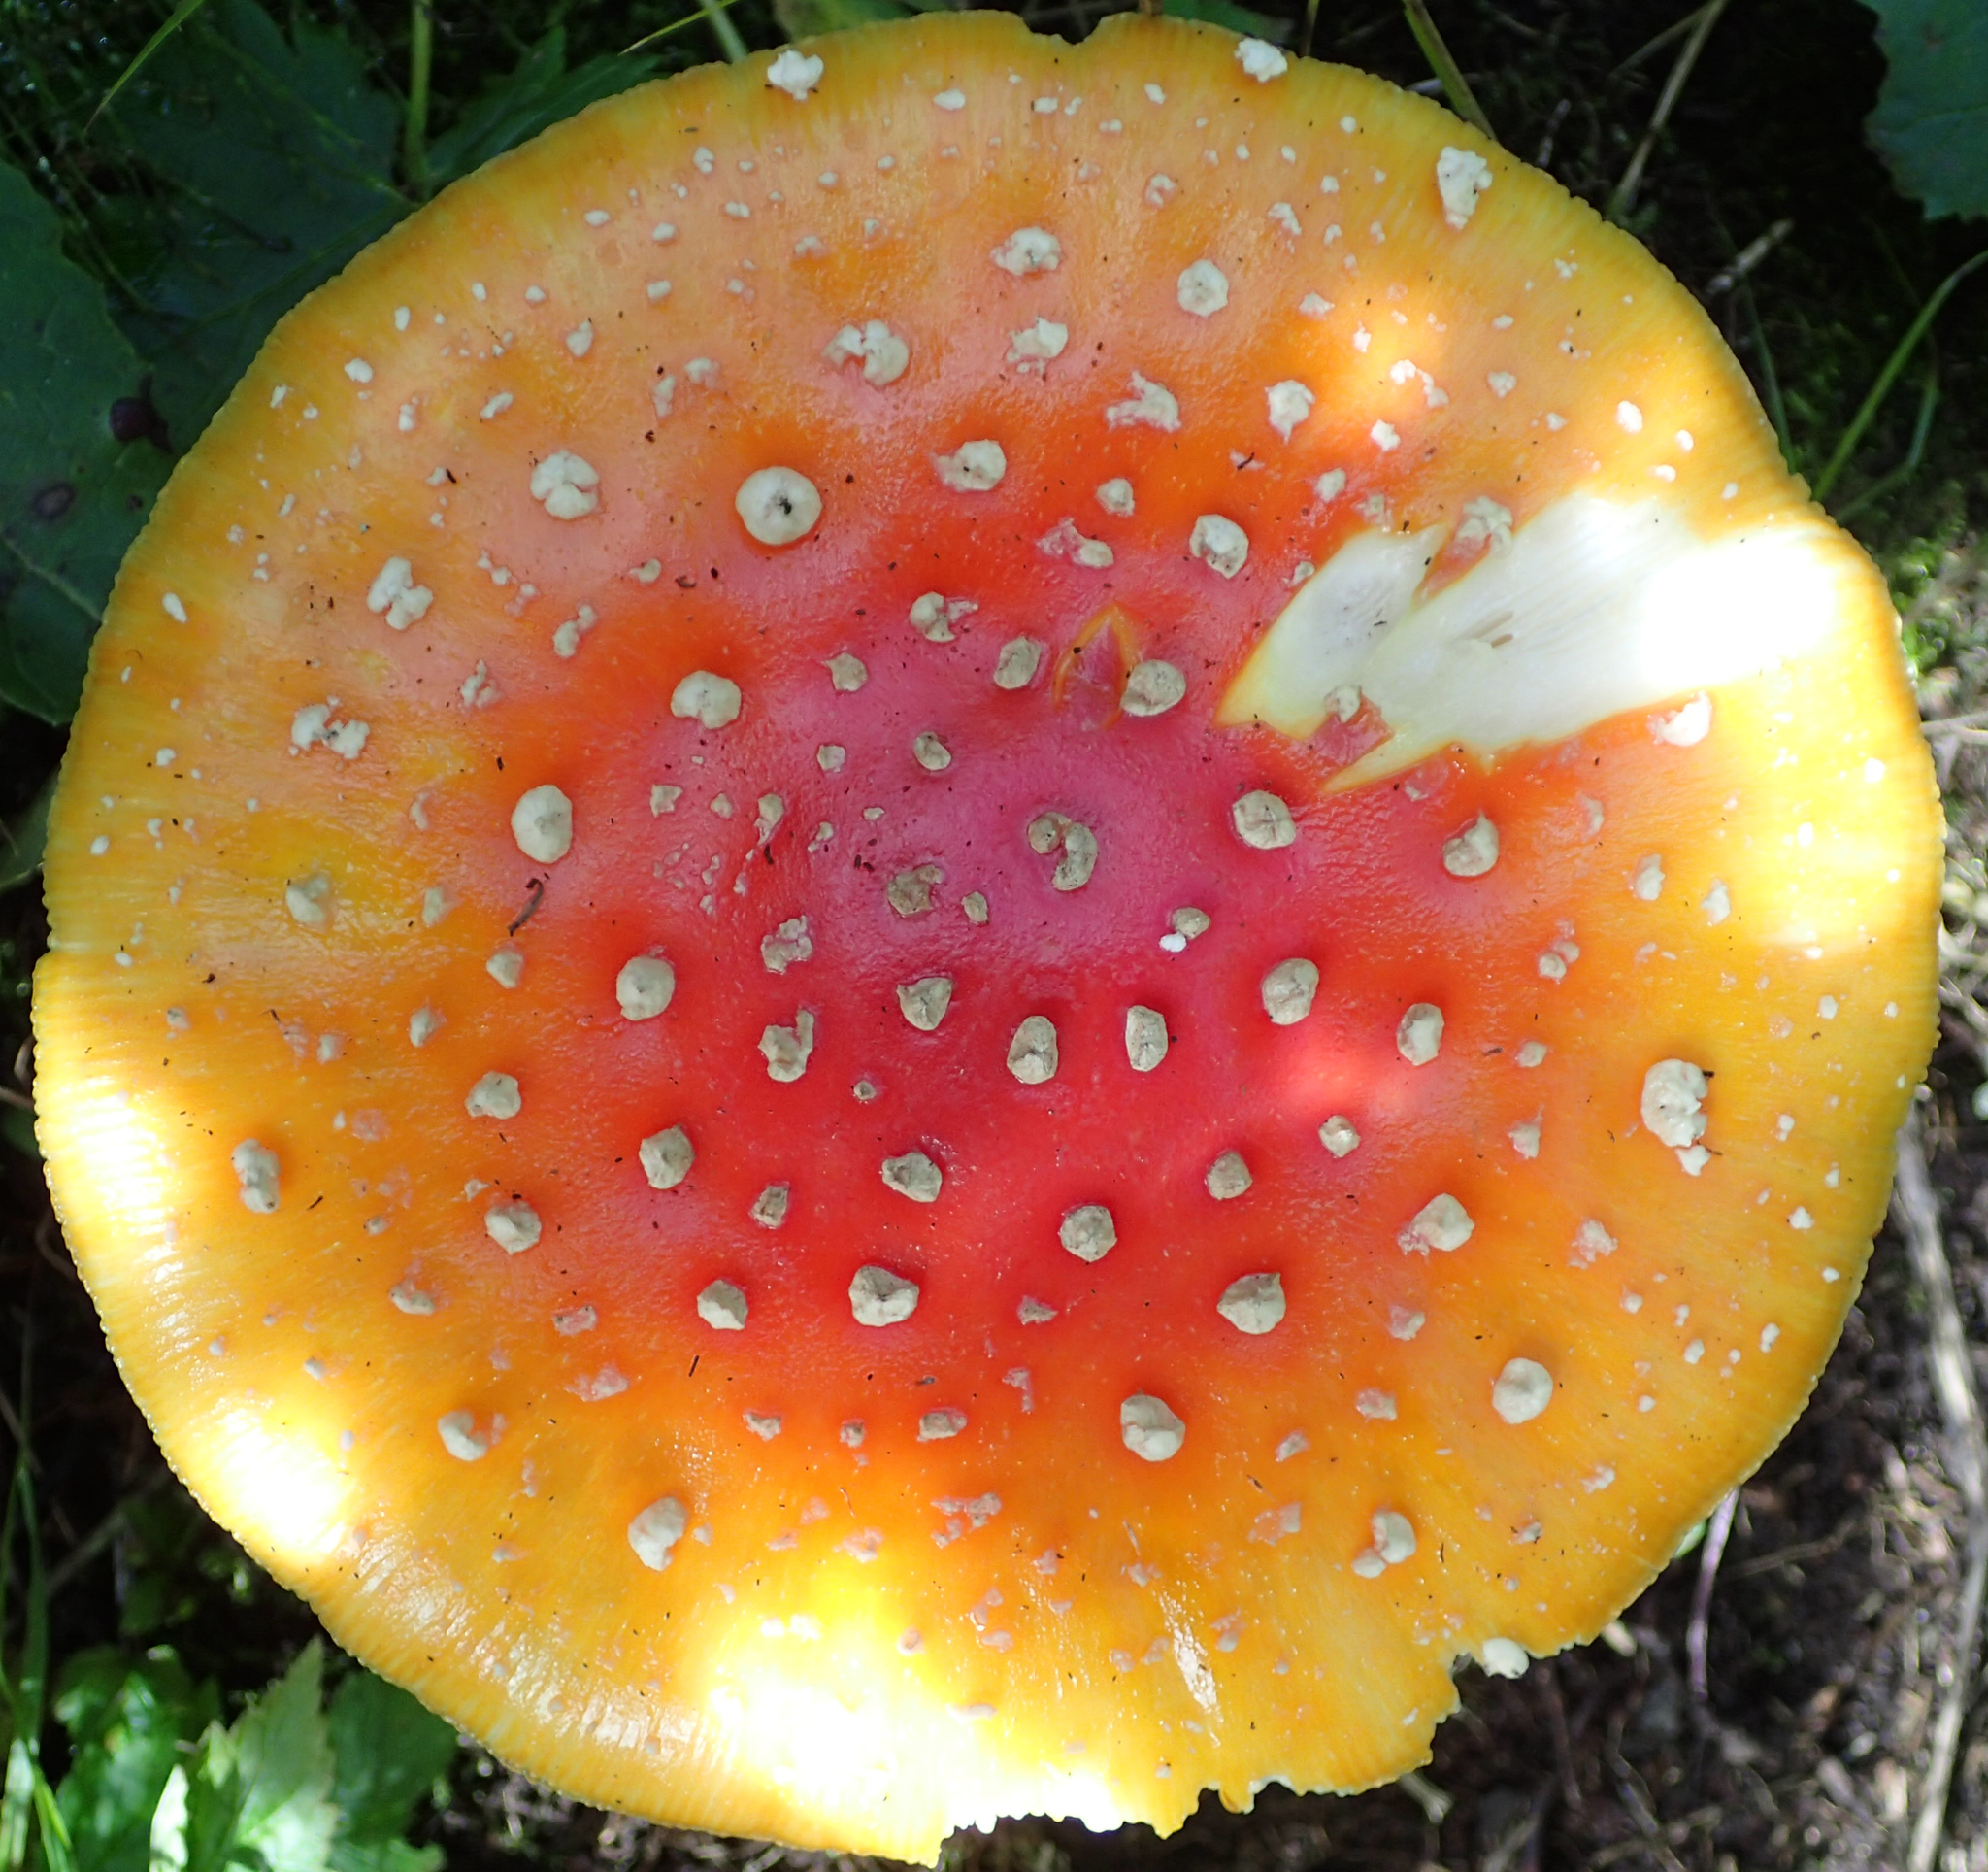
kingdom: Fungi
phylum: Basidiomycota
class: Agaricomycetes
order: Agaricales
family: Amanitaceae
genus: Amanita
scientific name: Amanita muscaria
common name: Fly agaric
